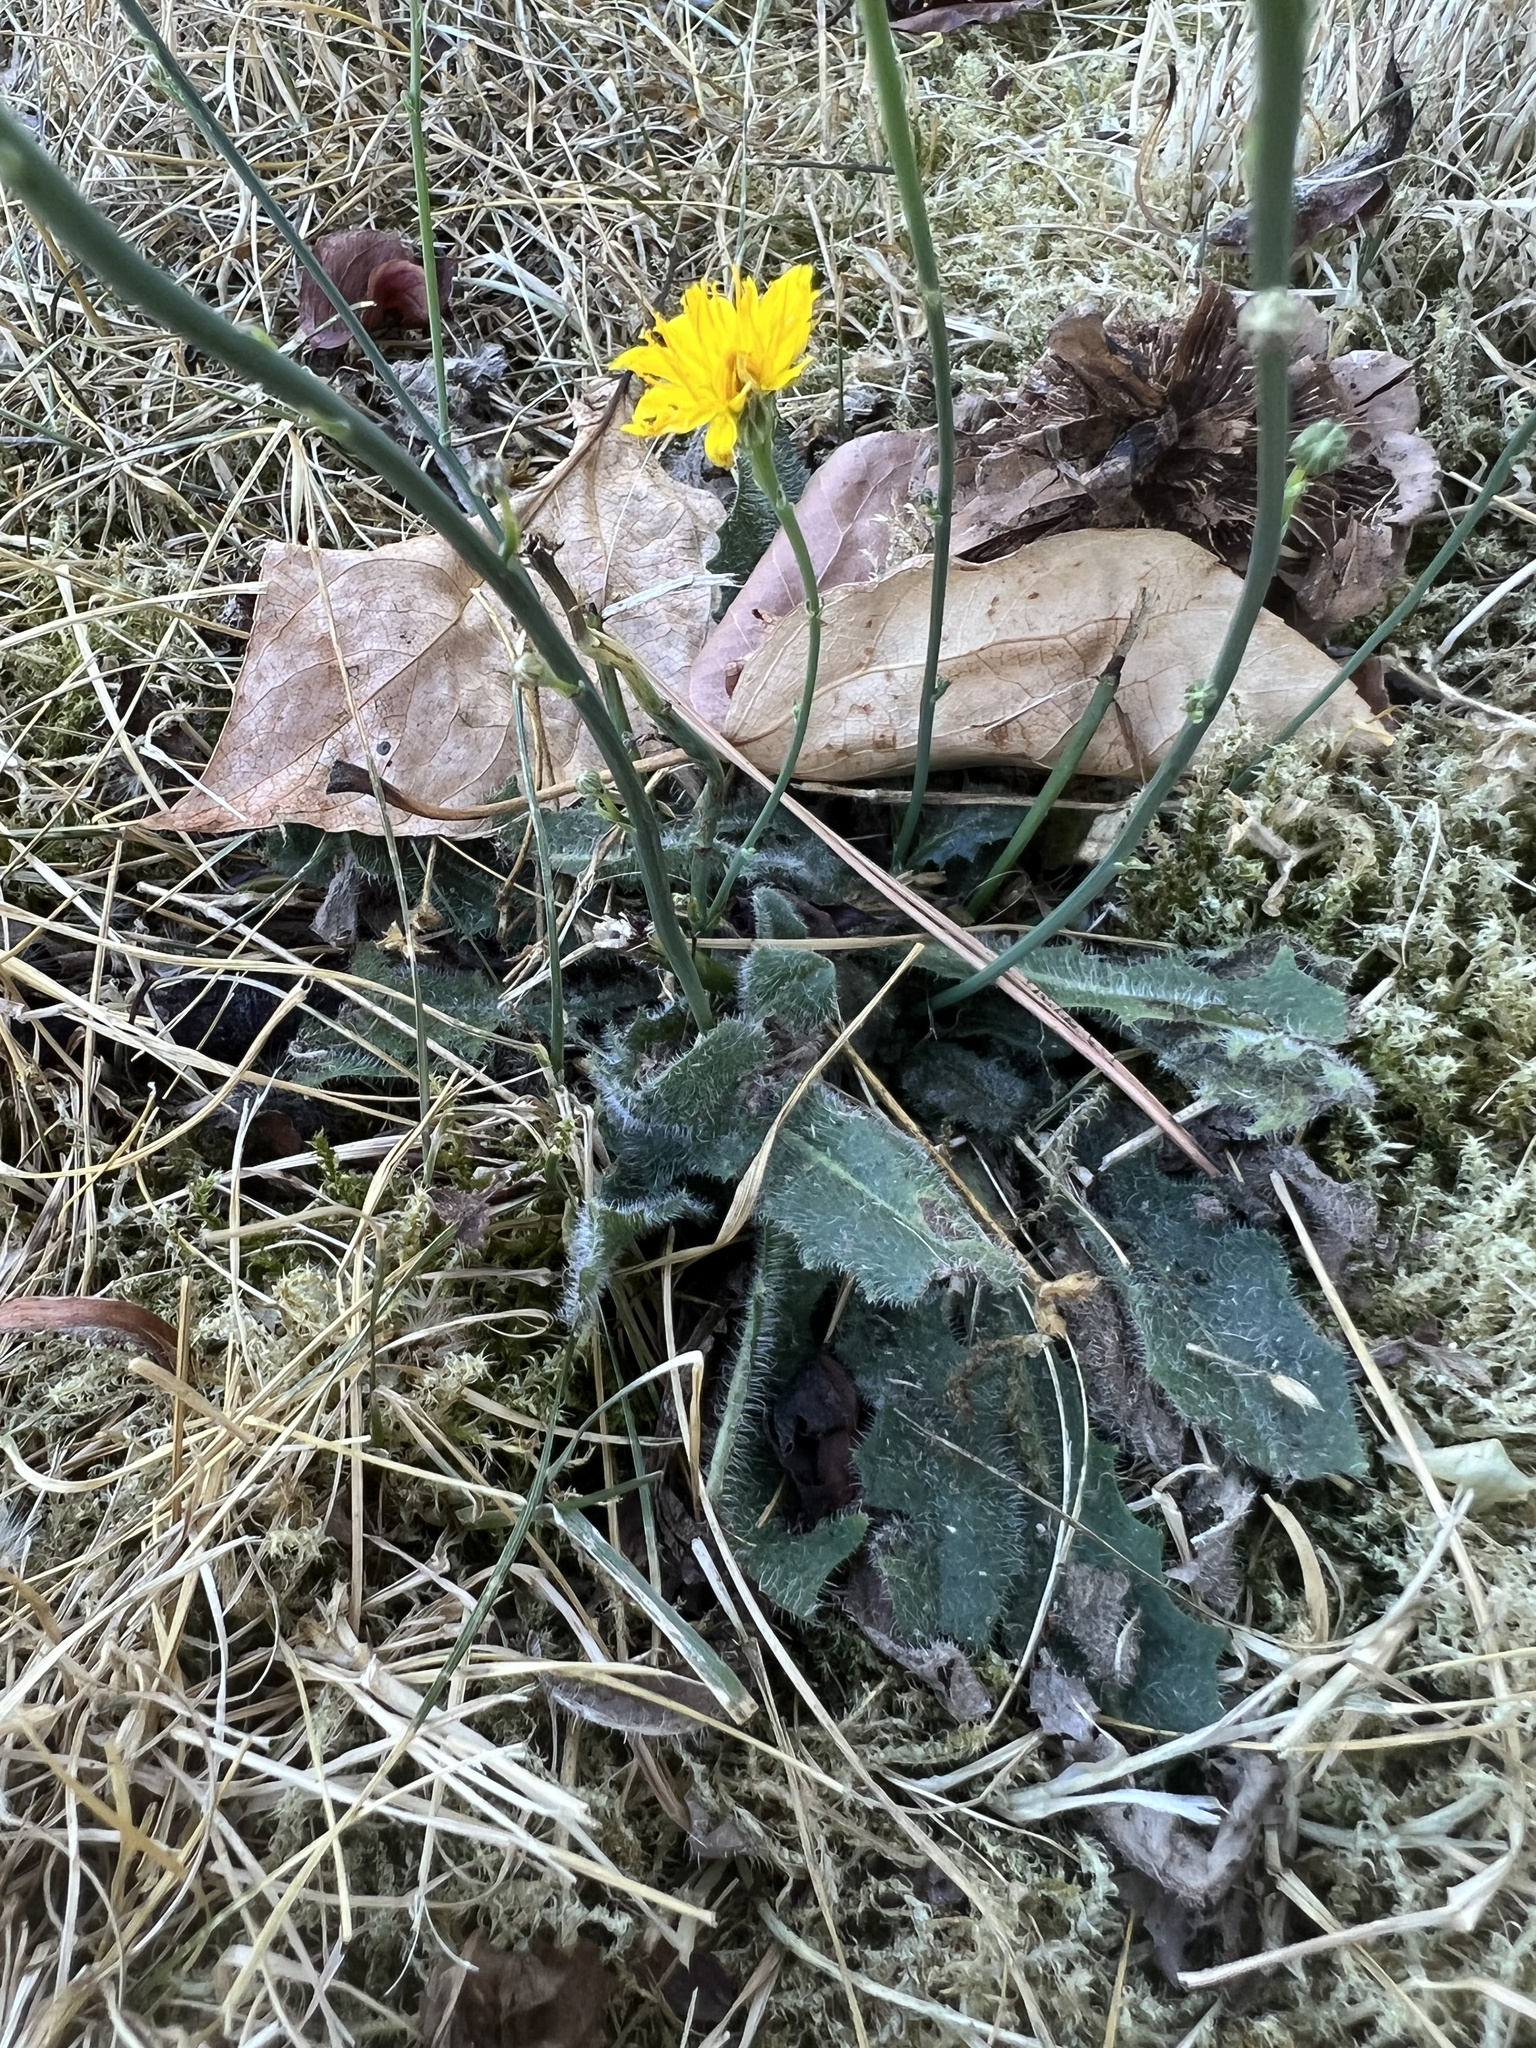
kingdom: Plantae
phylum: Tracheophyta
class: Magnoliopsida
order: Asterales
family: Asteraceae
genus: Hypochaeris
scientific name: Hypochaeris radicata
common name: Flatweed
